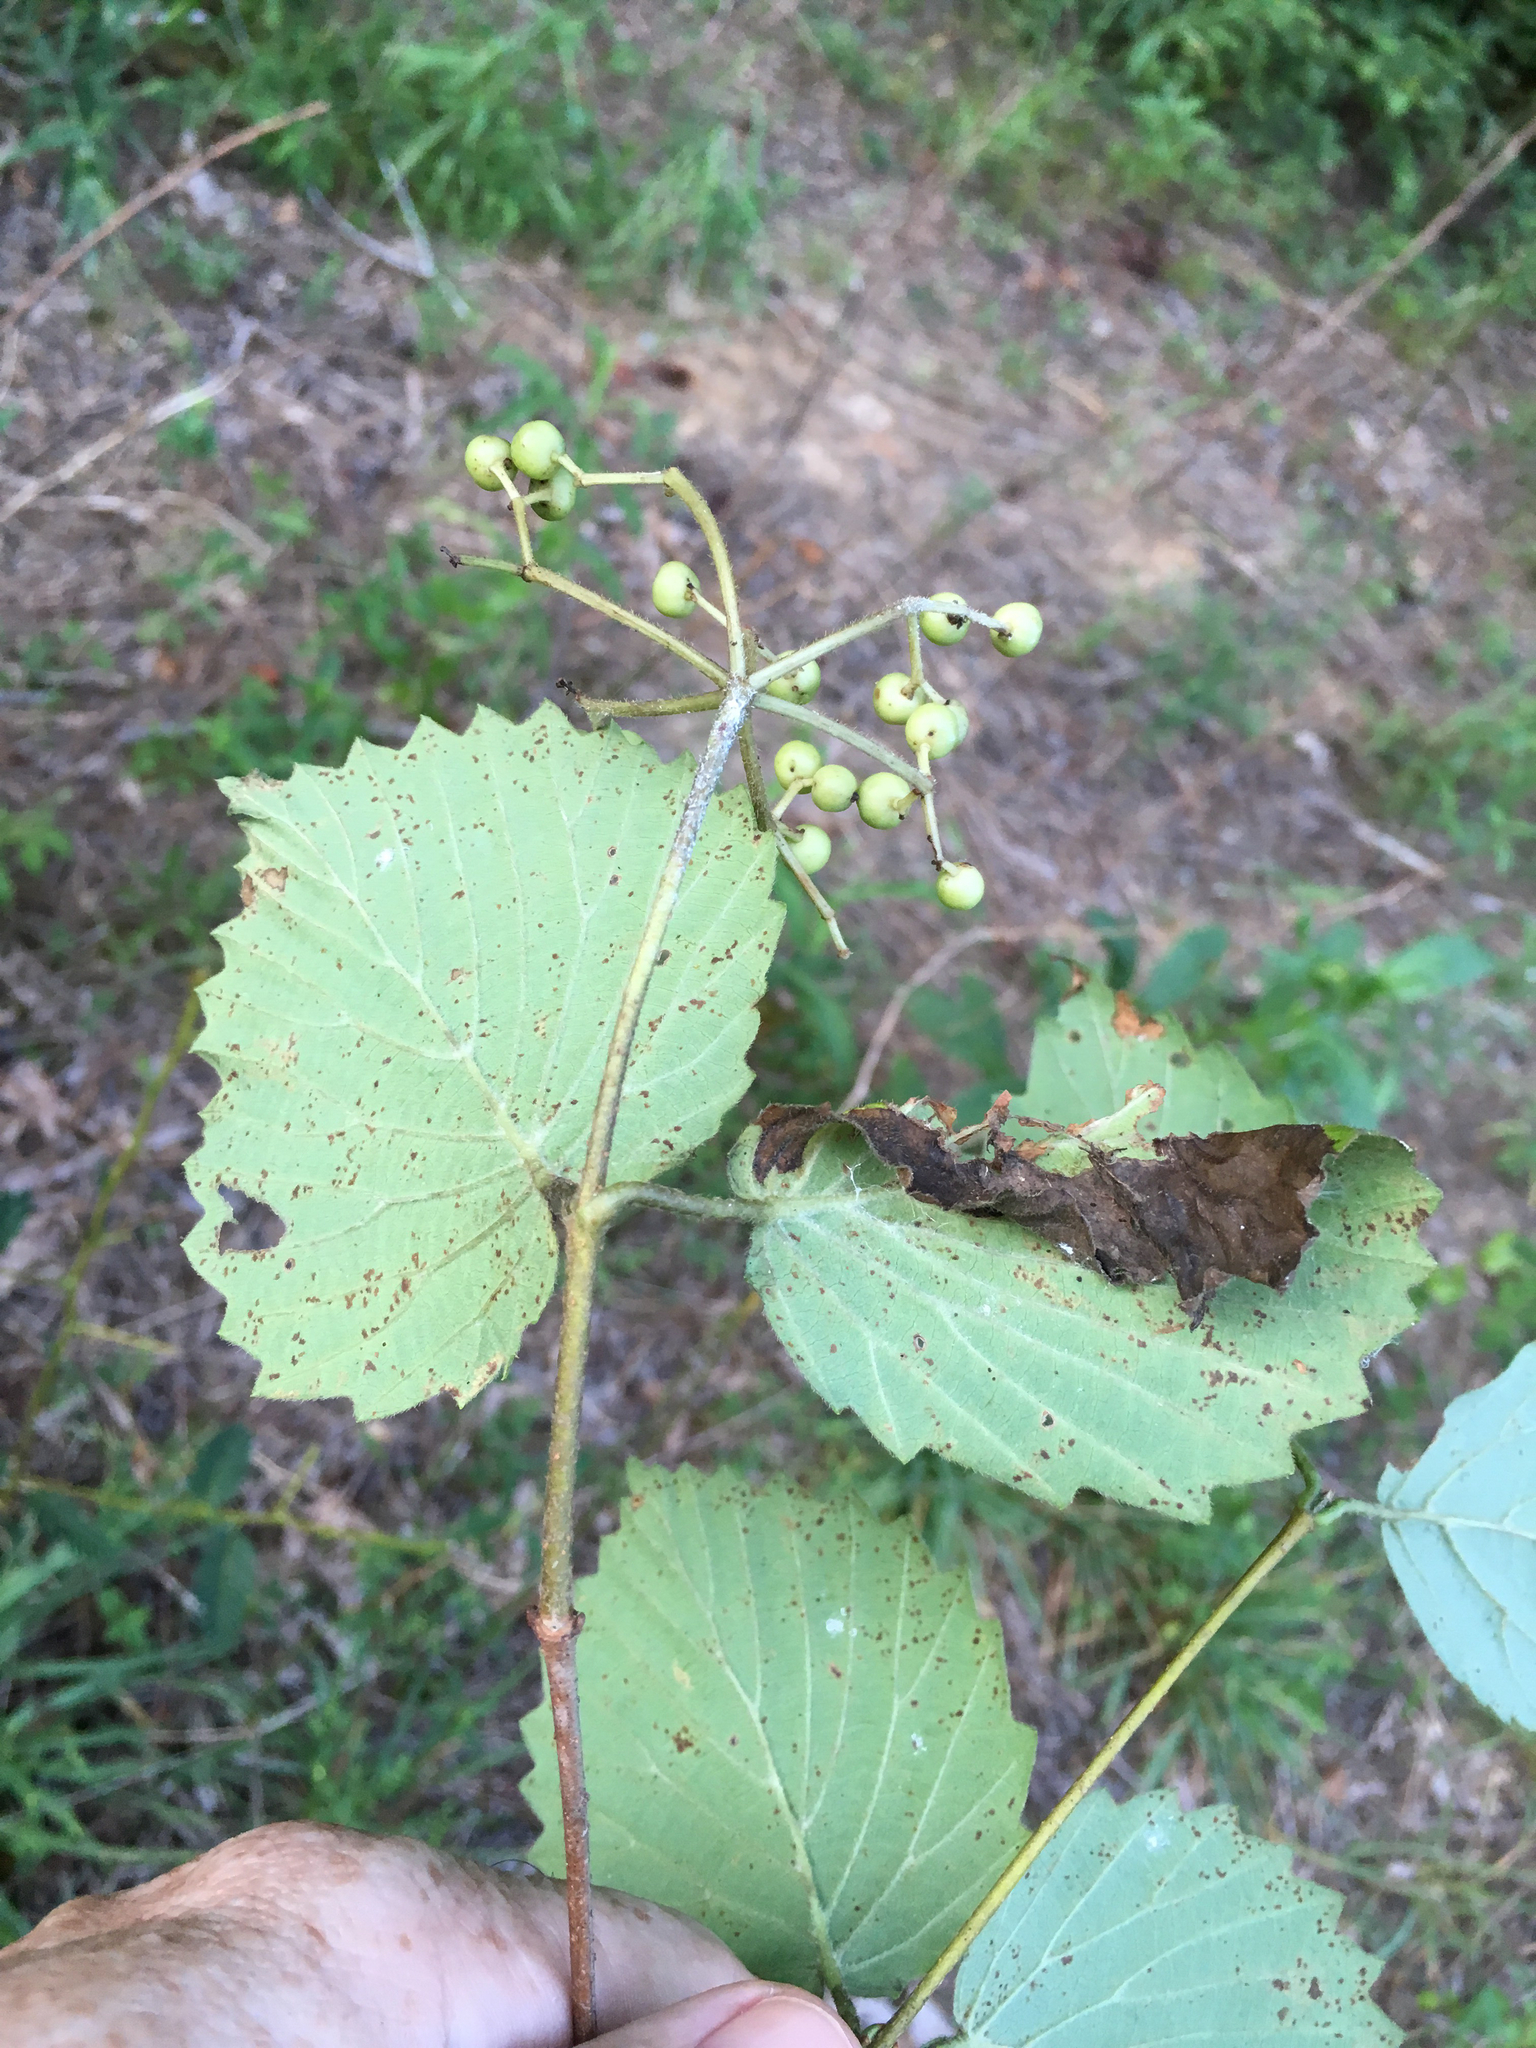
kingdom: Plantae
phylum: Tracheophyta
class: Magnoliopsida
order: Dipsacales
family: Viburnaceae
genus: Viburnum
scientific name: Viburnum dentatum
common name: Arrow-wood
